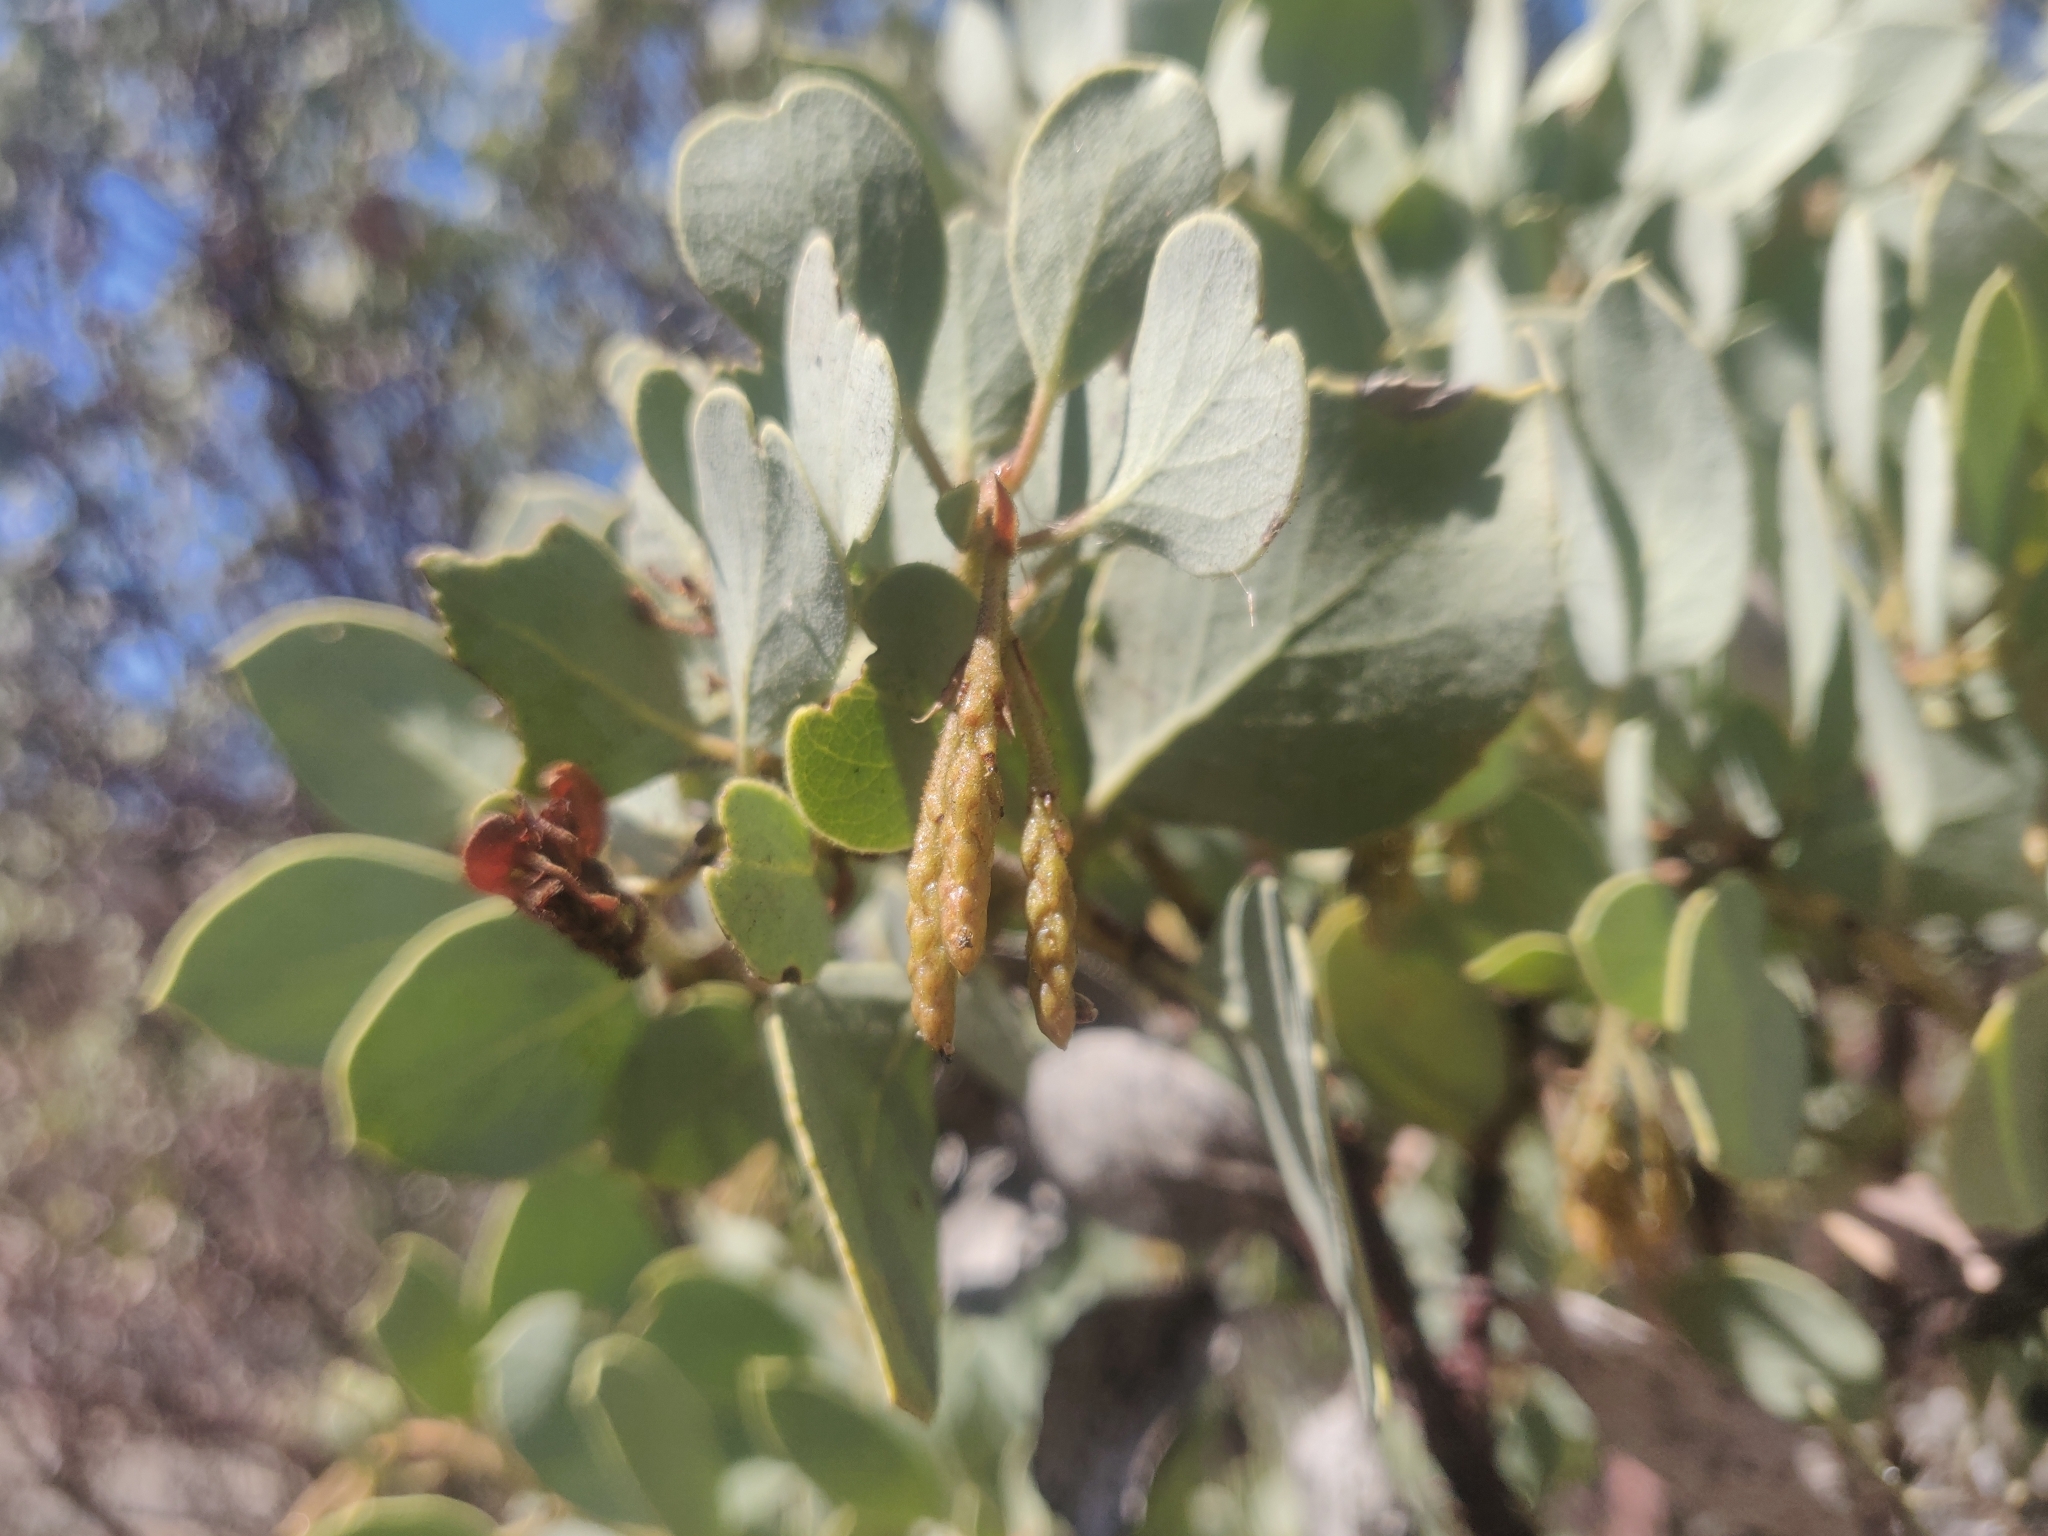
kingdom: Plantae
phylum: Tracheophyta
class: Magnoliopsida
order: Ericales
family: Ericaceae
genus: Arctostaphylos
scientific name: Arctostaphylos viscida
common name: White-leaf manzanita
